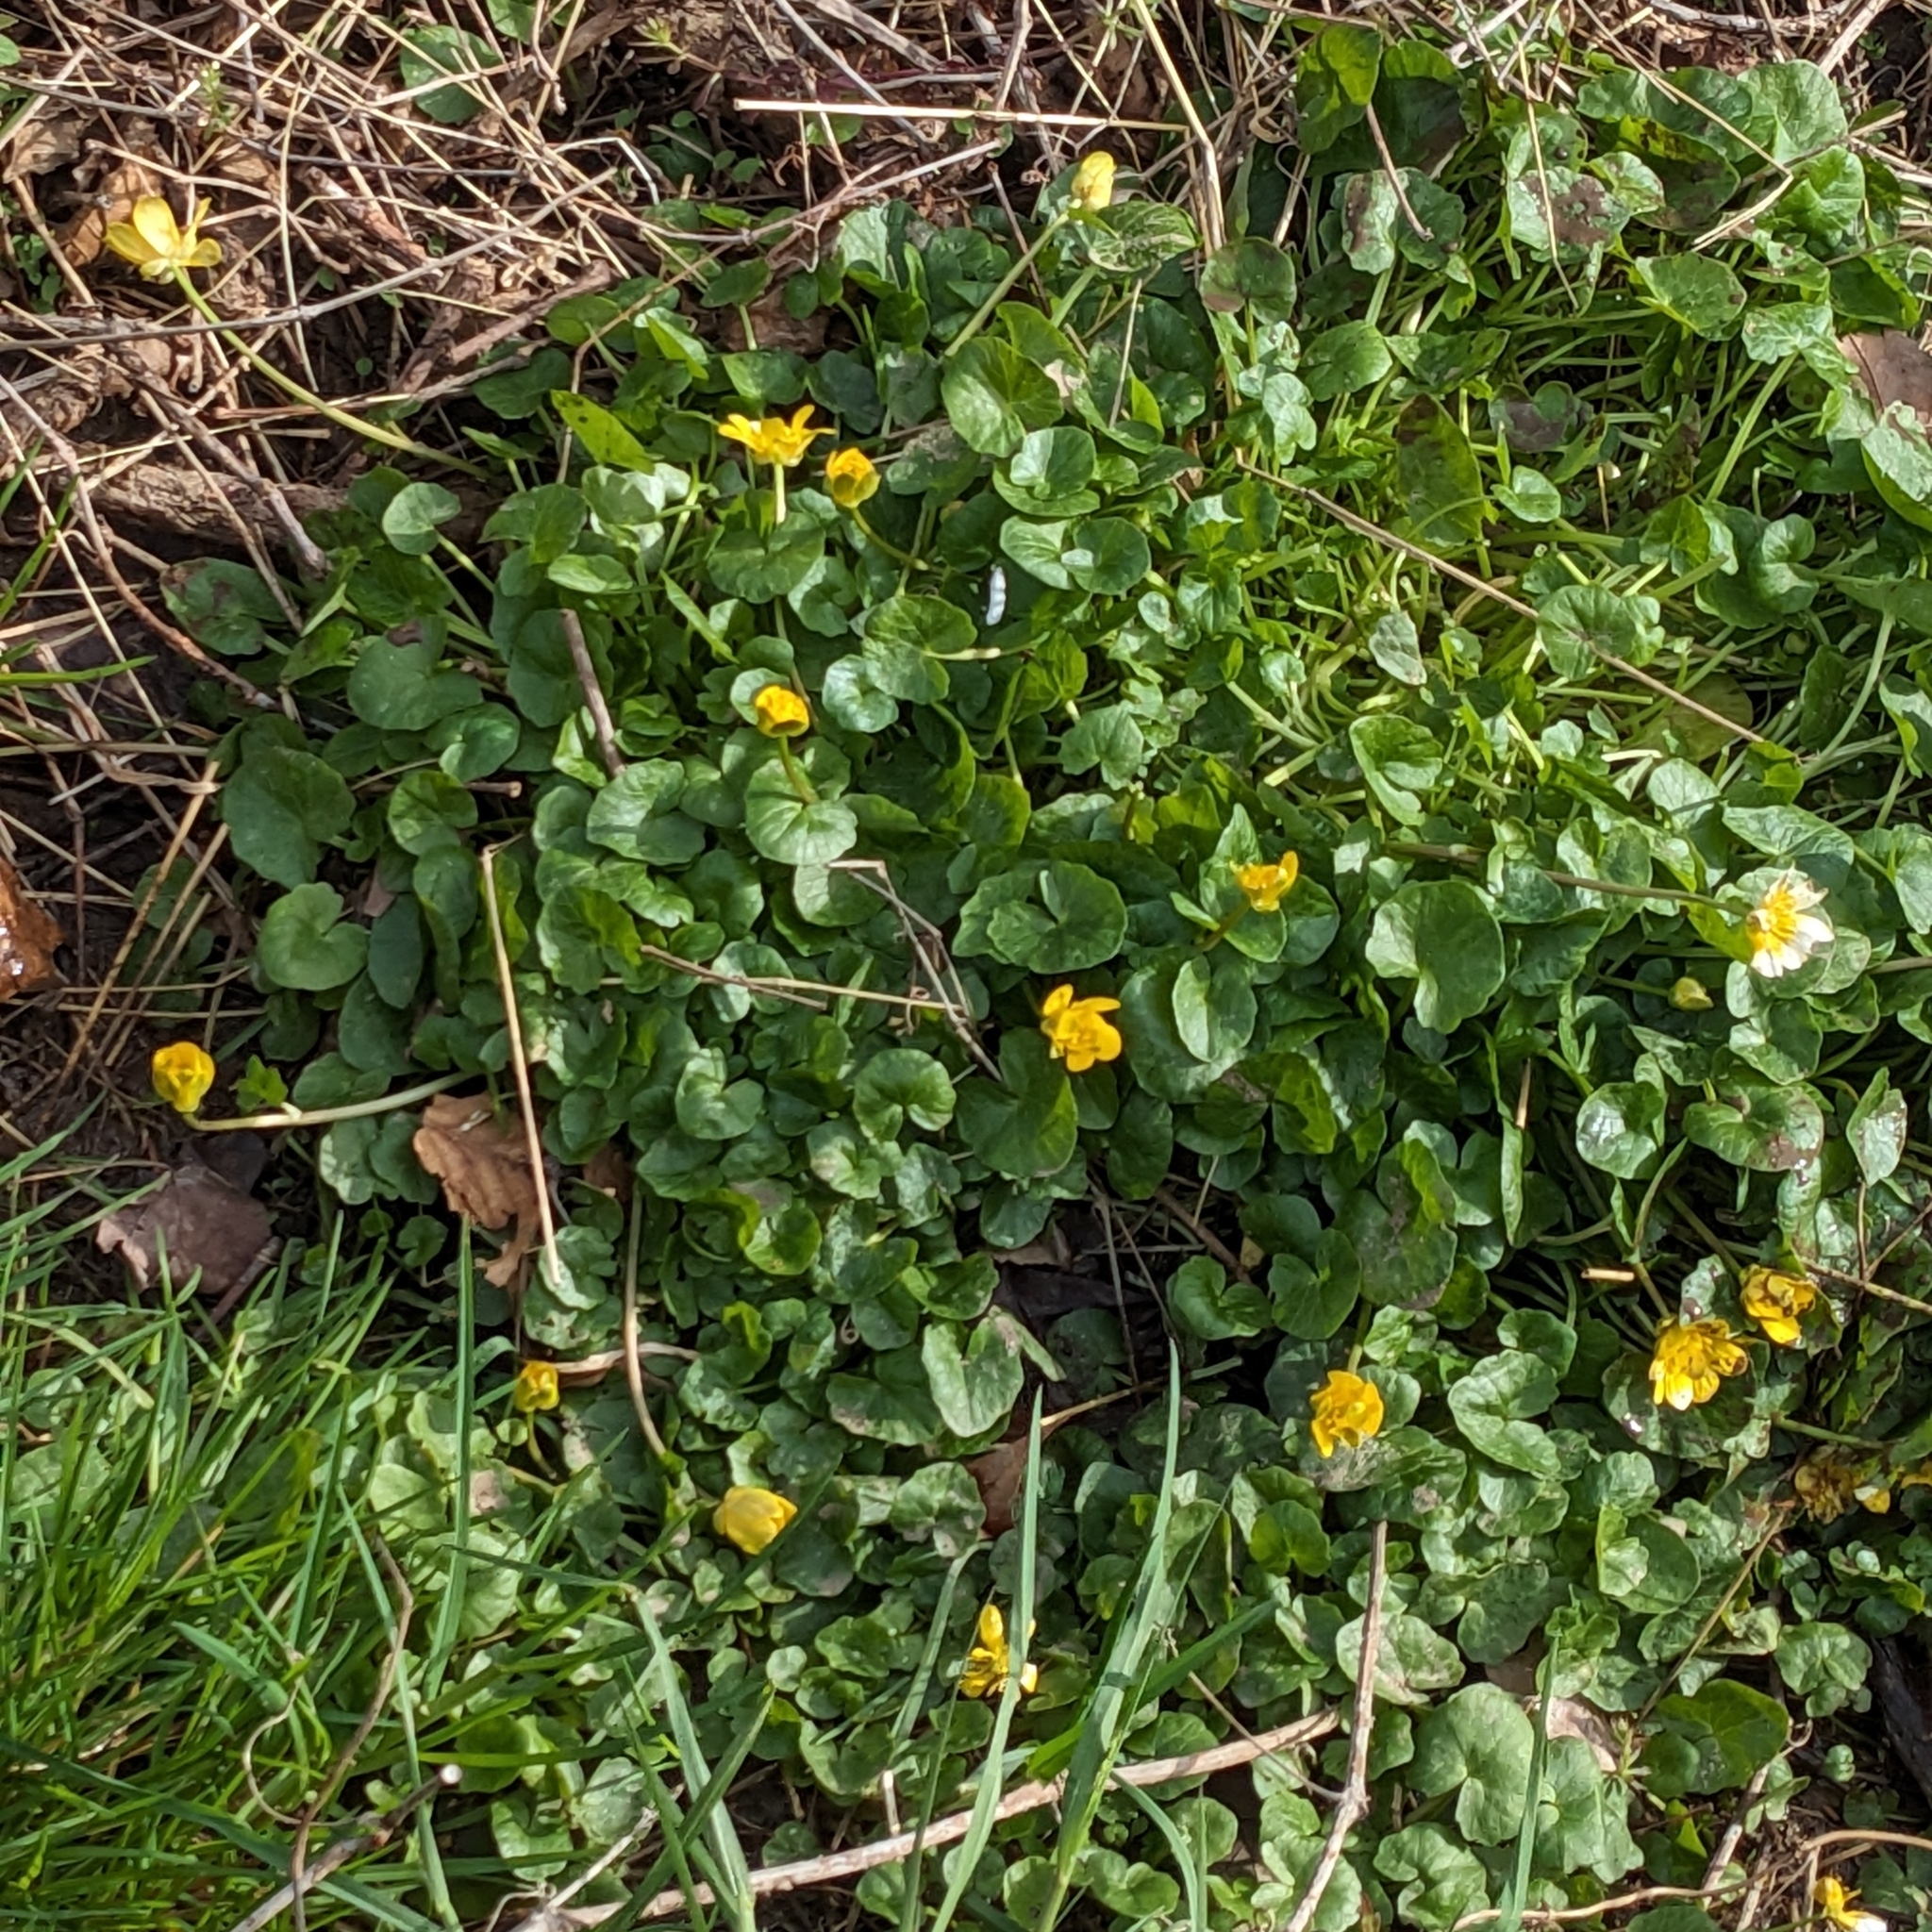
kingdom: Plantae
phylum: Tracheophyta
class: Magnoliopsida
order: Ranunculales
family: Ranunculaceae
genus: Ficaria
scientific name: Ficaria verna
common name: Lesser celandine
